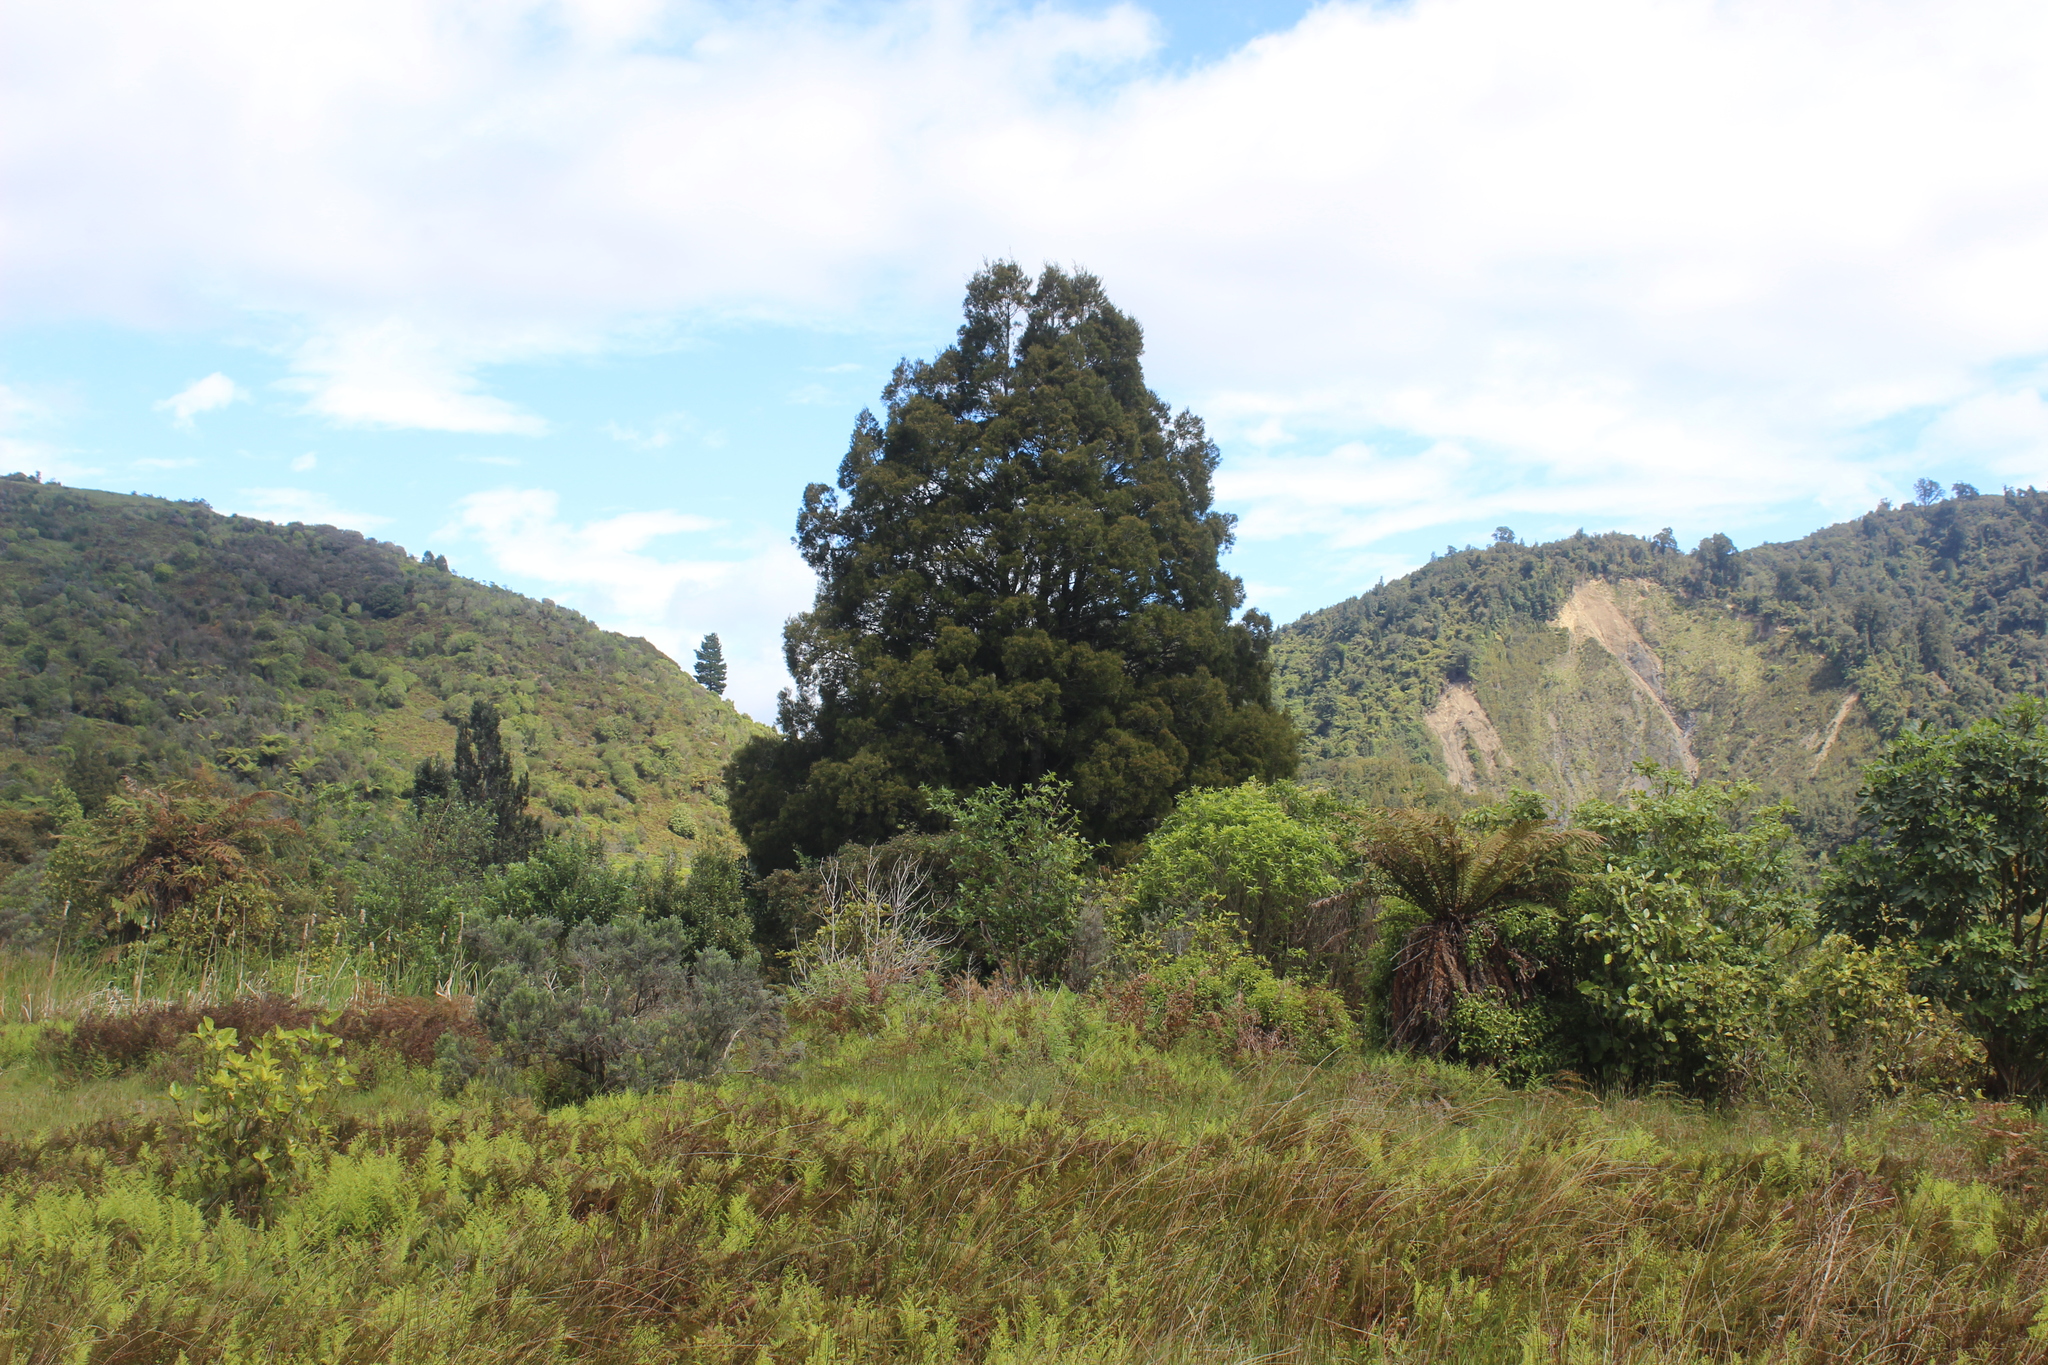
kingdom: Plantae
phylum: Tracheophyta
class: Pinopsida
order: Pinales
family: Podocarpaceae
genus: Dacrycarpus
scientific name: Dacrycarpus dacrydioides
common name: White pine
